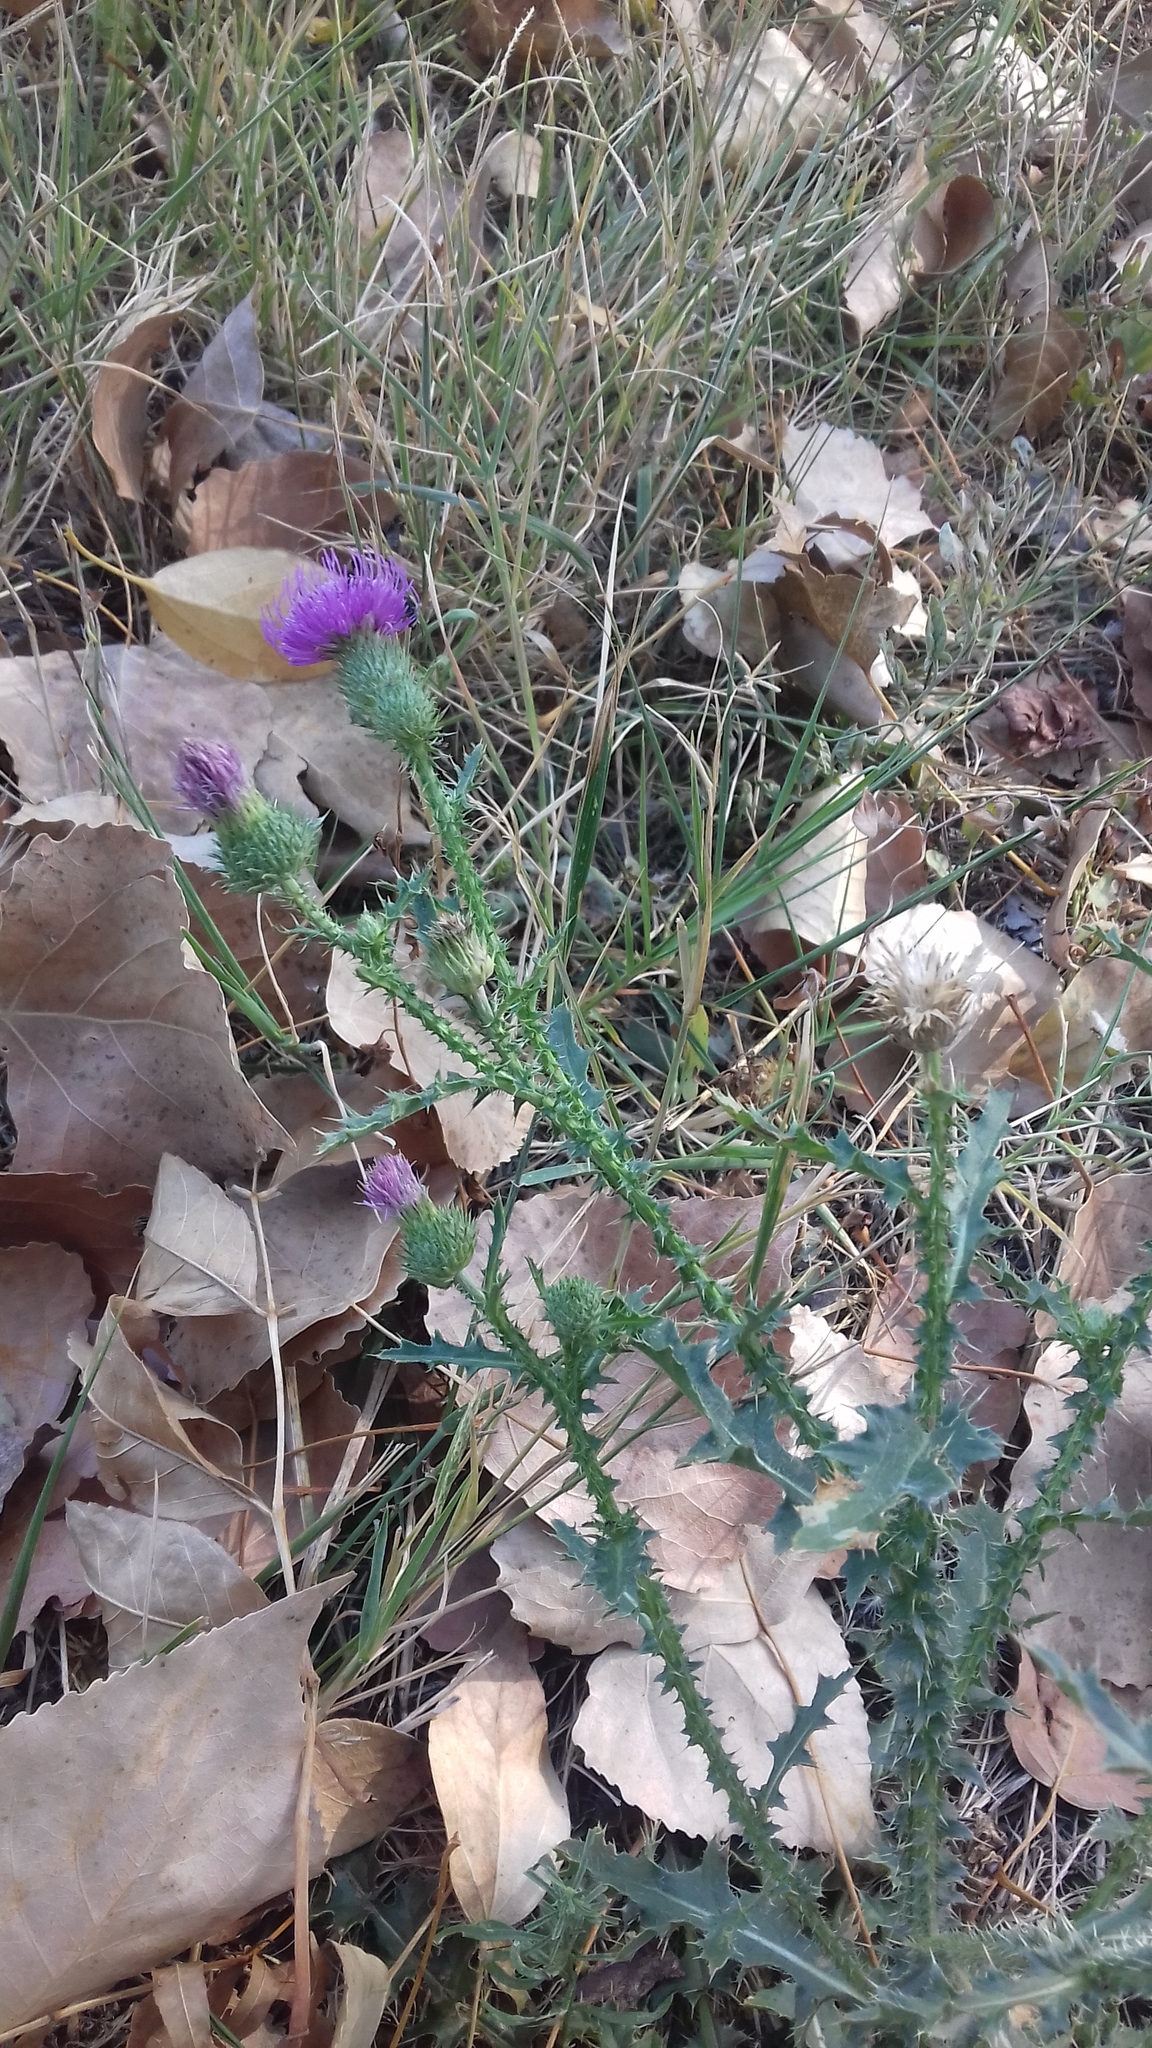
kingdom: Plantae
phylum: Tracheophyta
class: Magnoliopsida
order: Asterales
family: Asteraceae
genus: Carduus
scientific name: Carduus acanthoides
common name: Plumeless thistle
